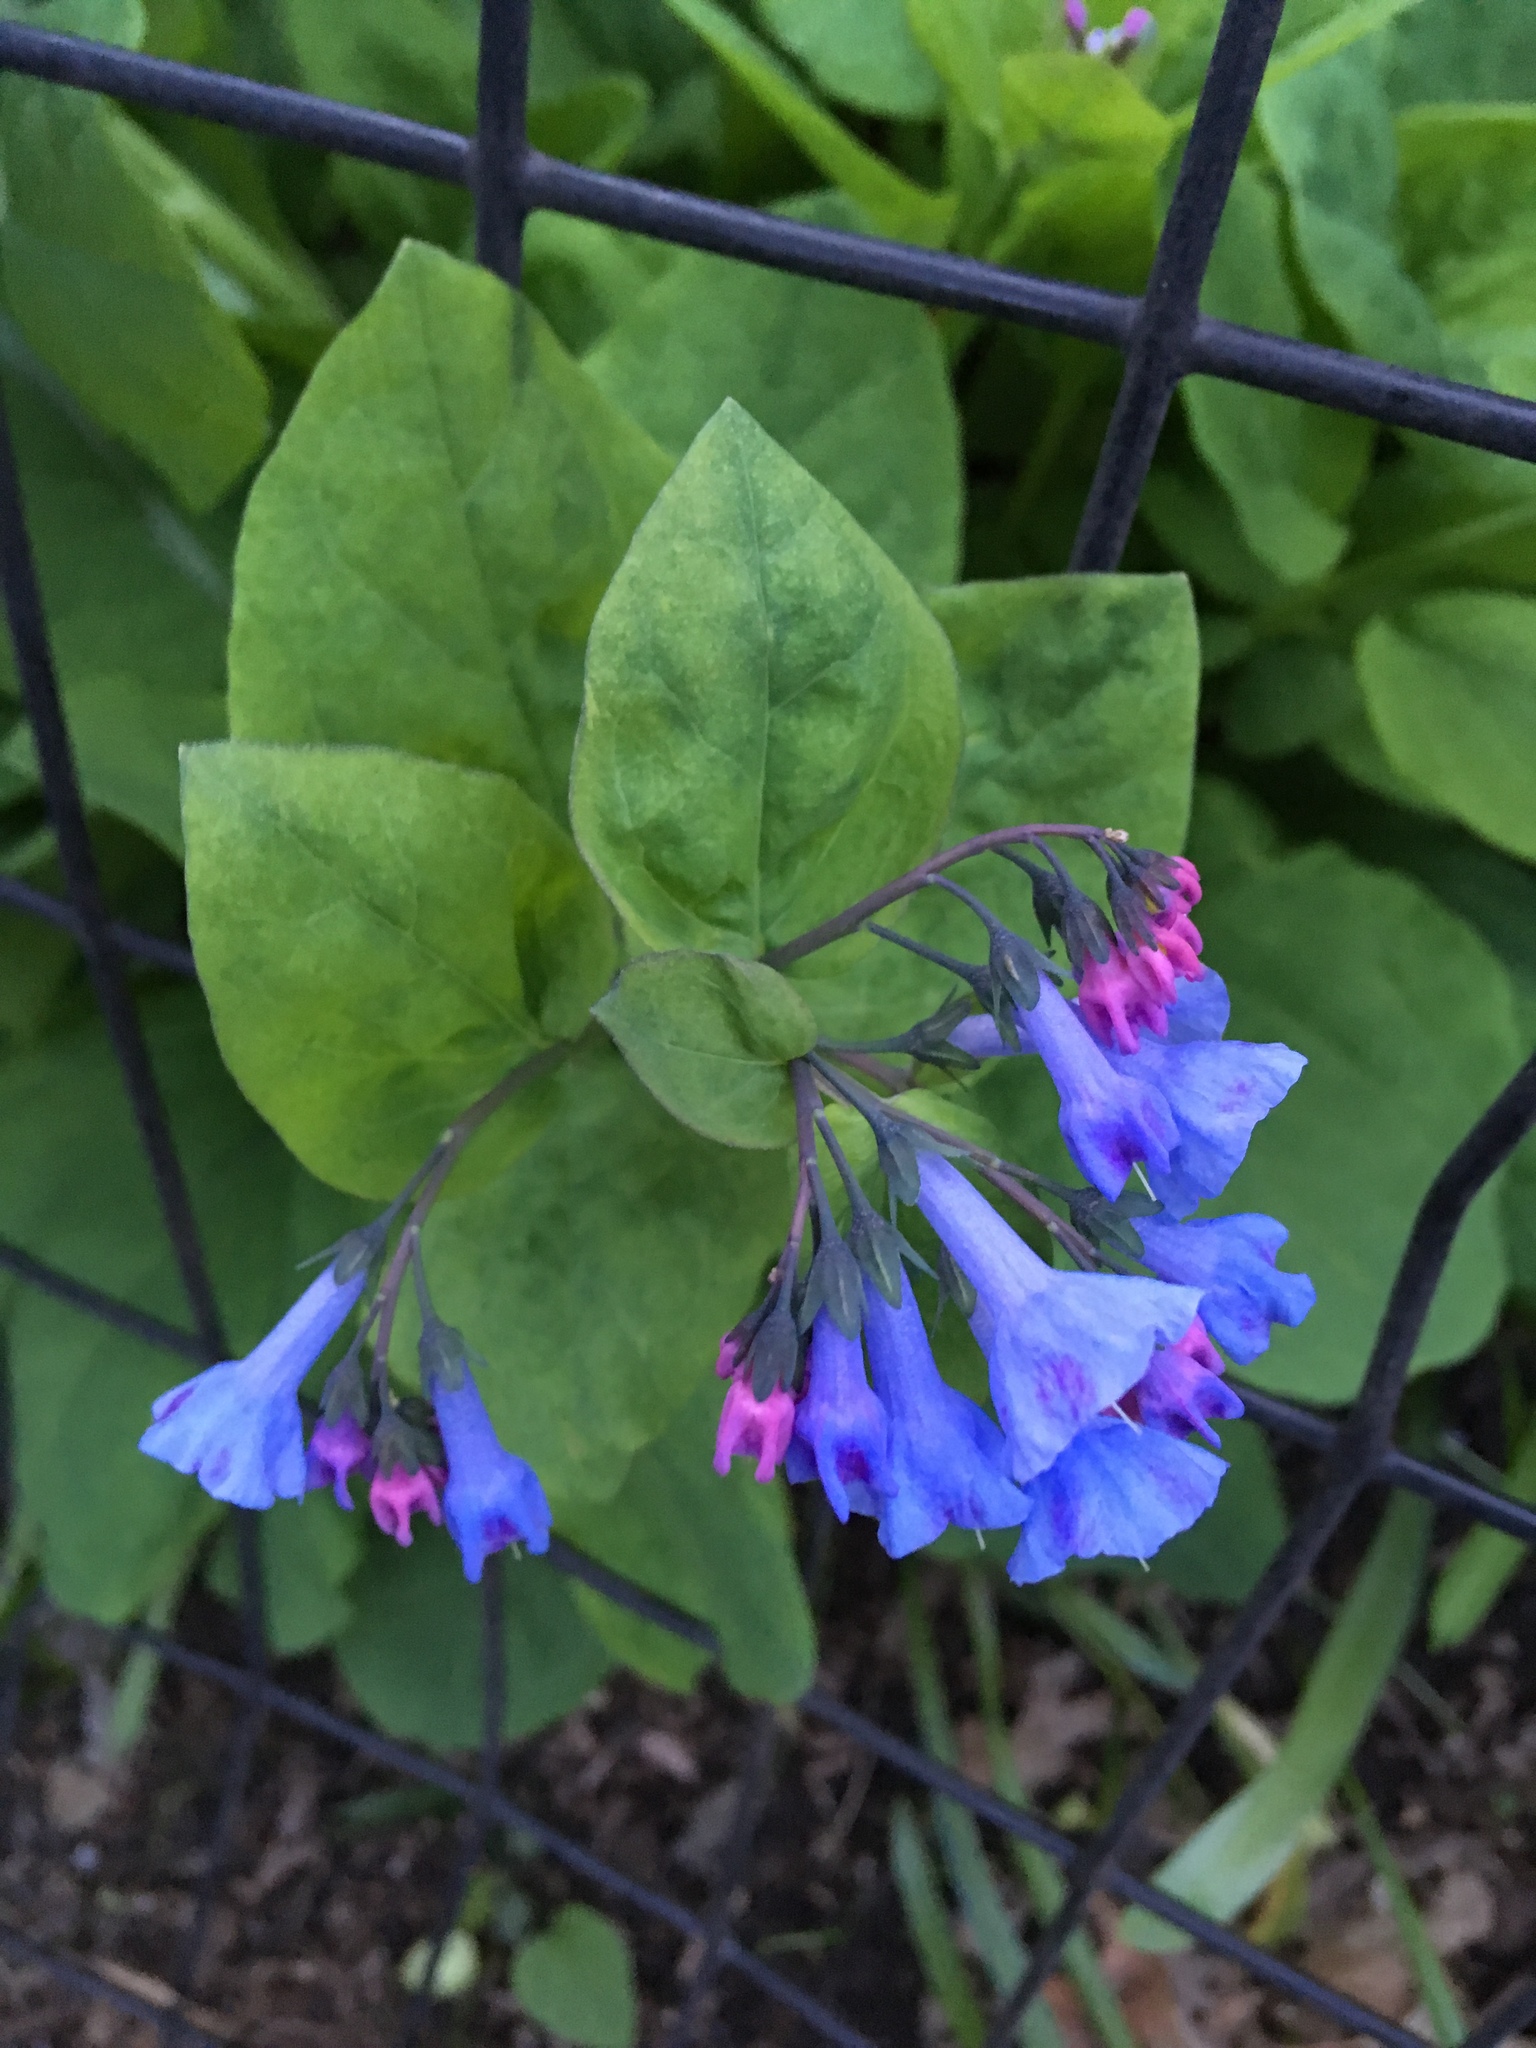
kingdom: Plantae
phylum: Tracheophyta
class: Magnoliopsida
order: Boraginales
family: Boraginaceae
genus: Mertensia
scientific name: Mertensia virginica
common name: Virginia bluebells
